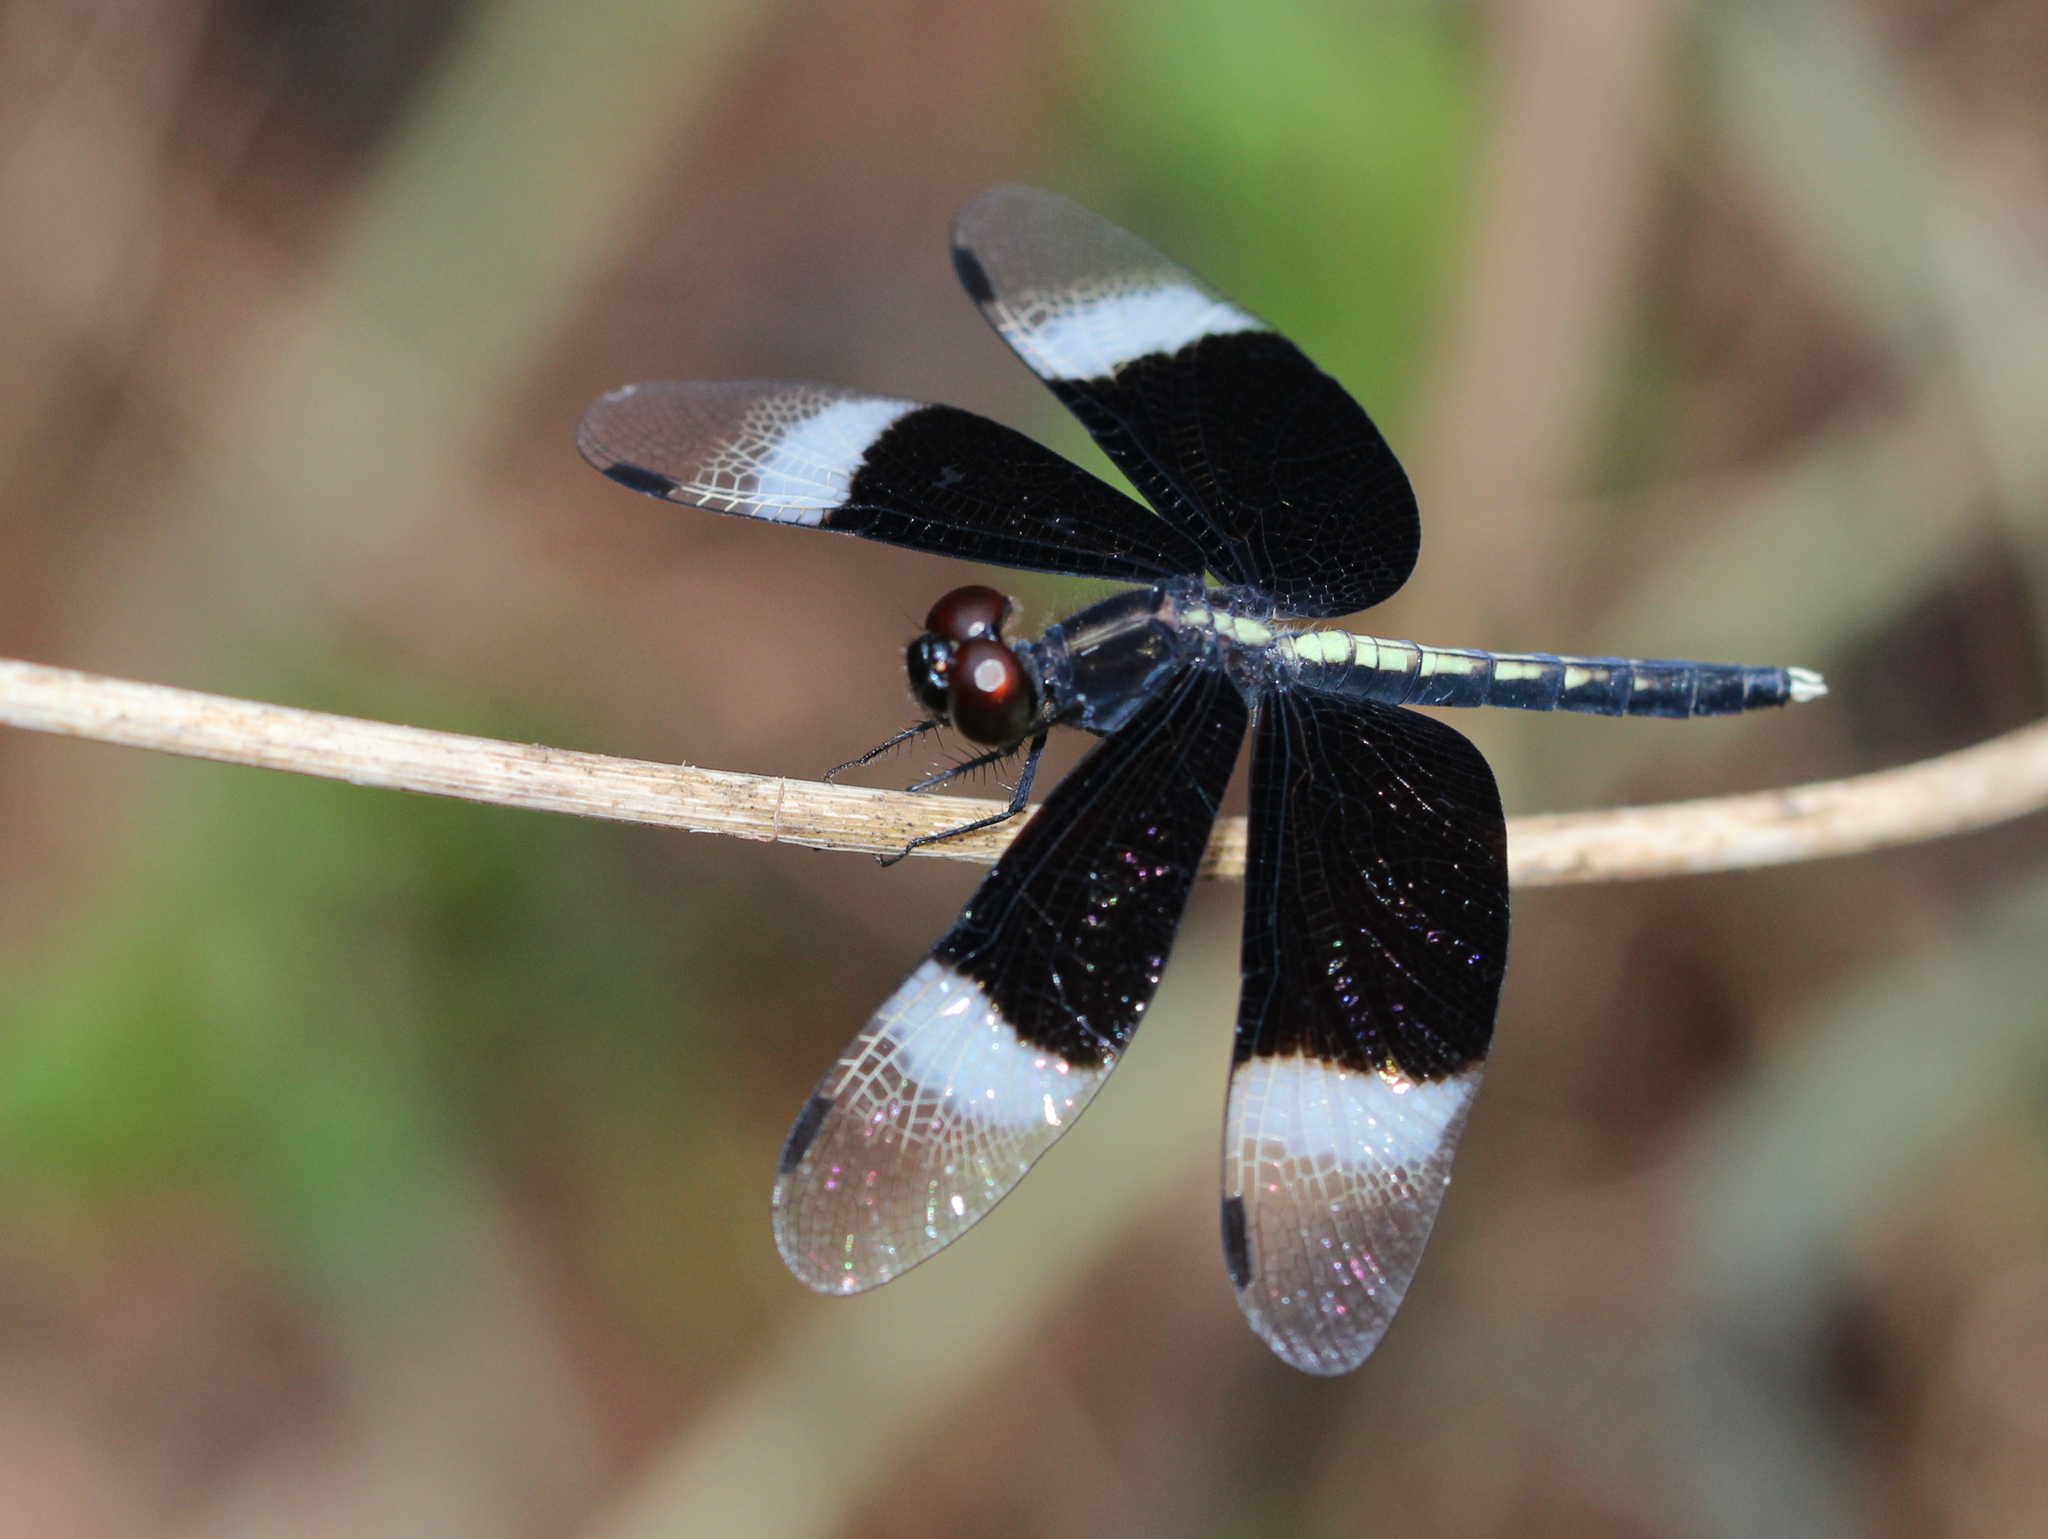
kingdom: Animalia
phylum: Arthropoda
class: Insecta
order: Odonata
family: Libellulidae
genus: Neurothemis
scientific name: Neurothemis tullia
